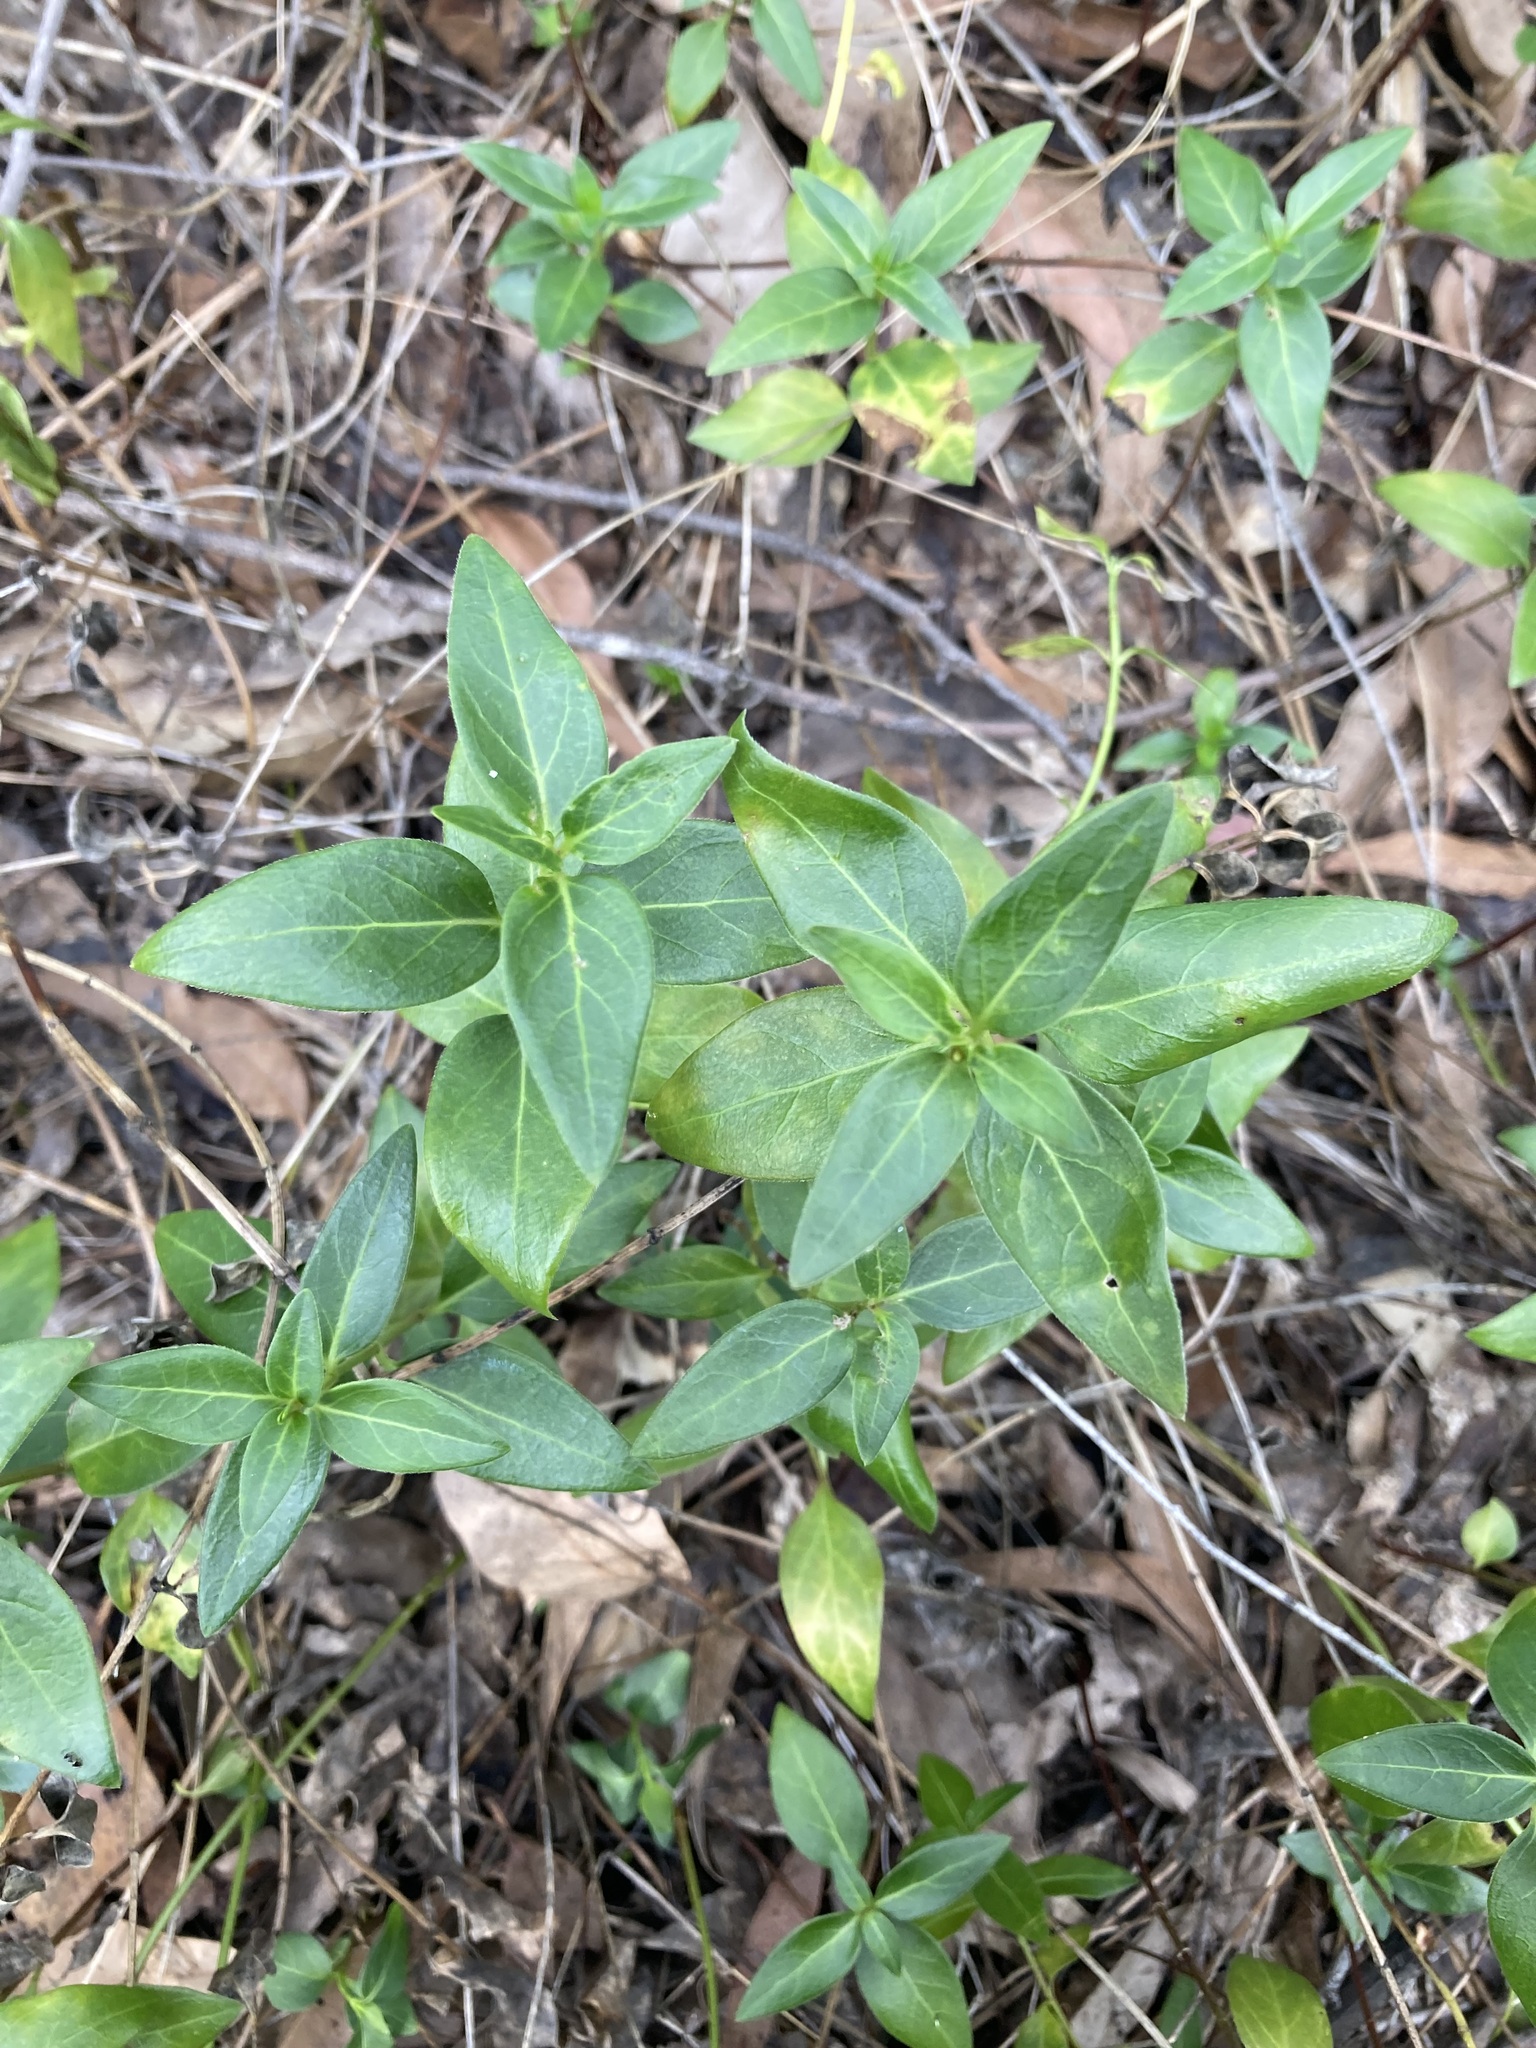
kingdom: Plantae
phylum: Tracheophyta
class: Magnoliopsida
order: Gentianales
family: Apocynaceae
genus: Vinca
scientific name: Vinca major
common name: Greater periwinkle
